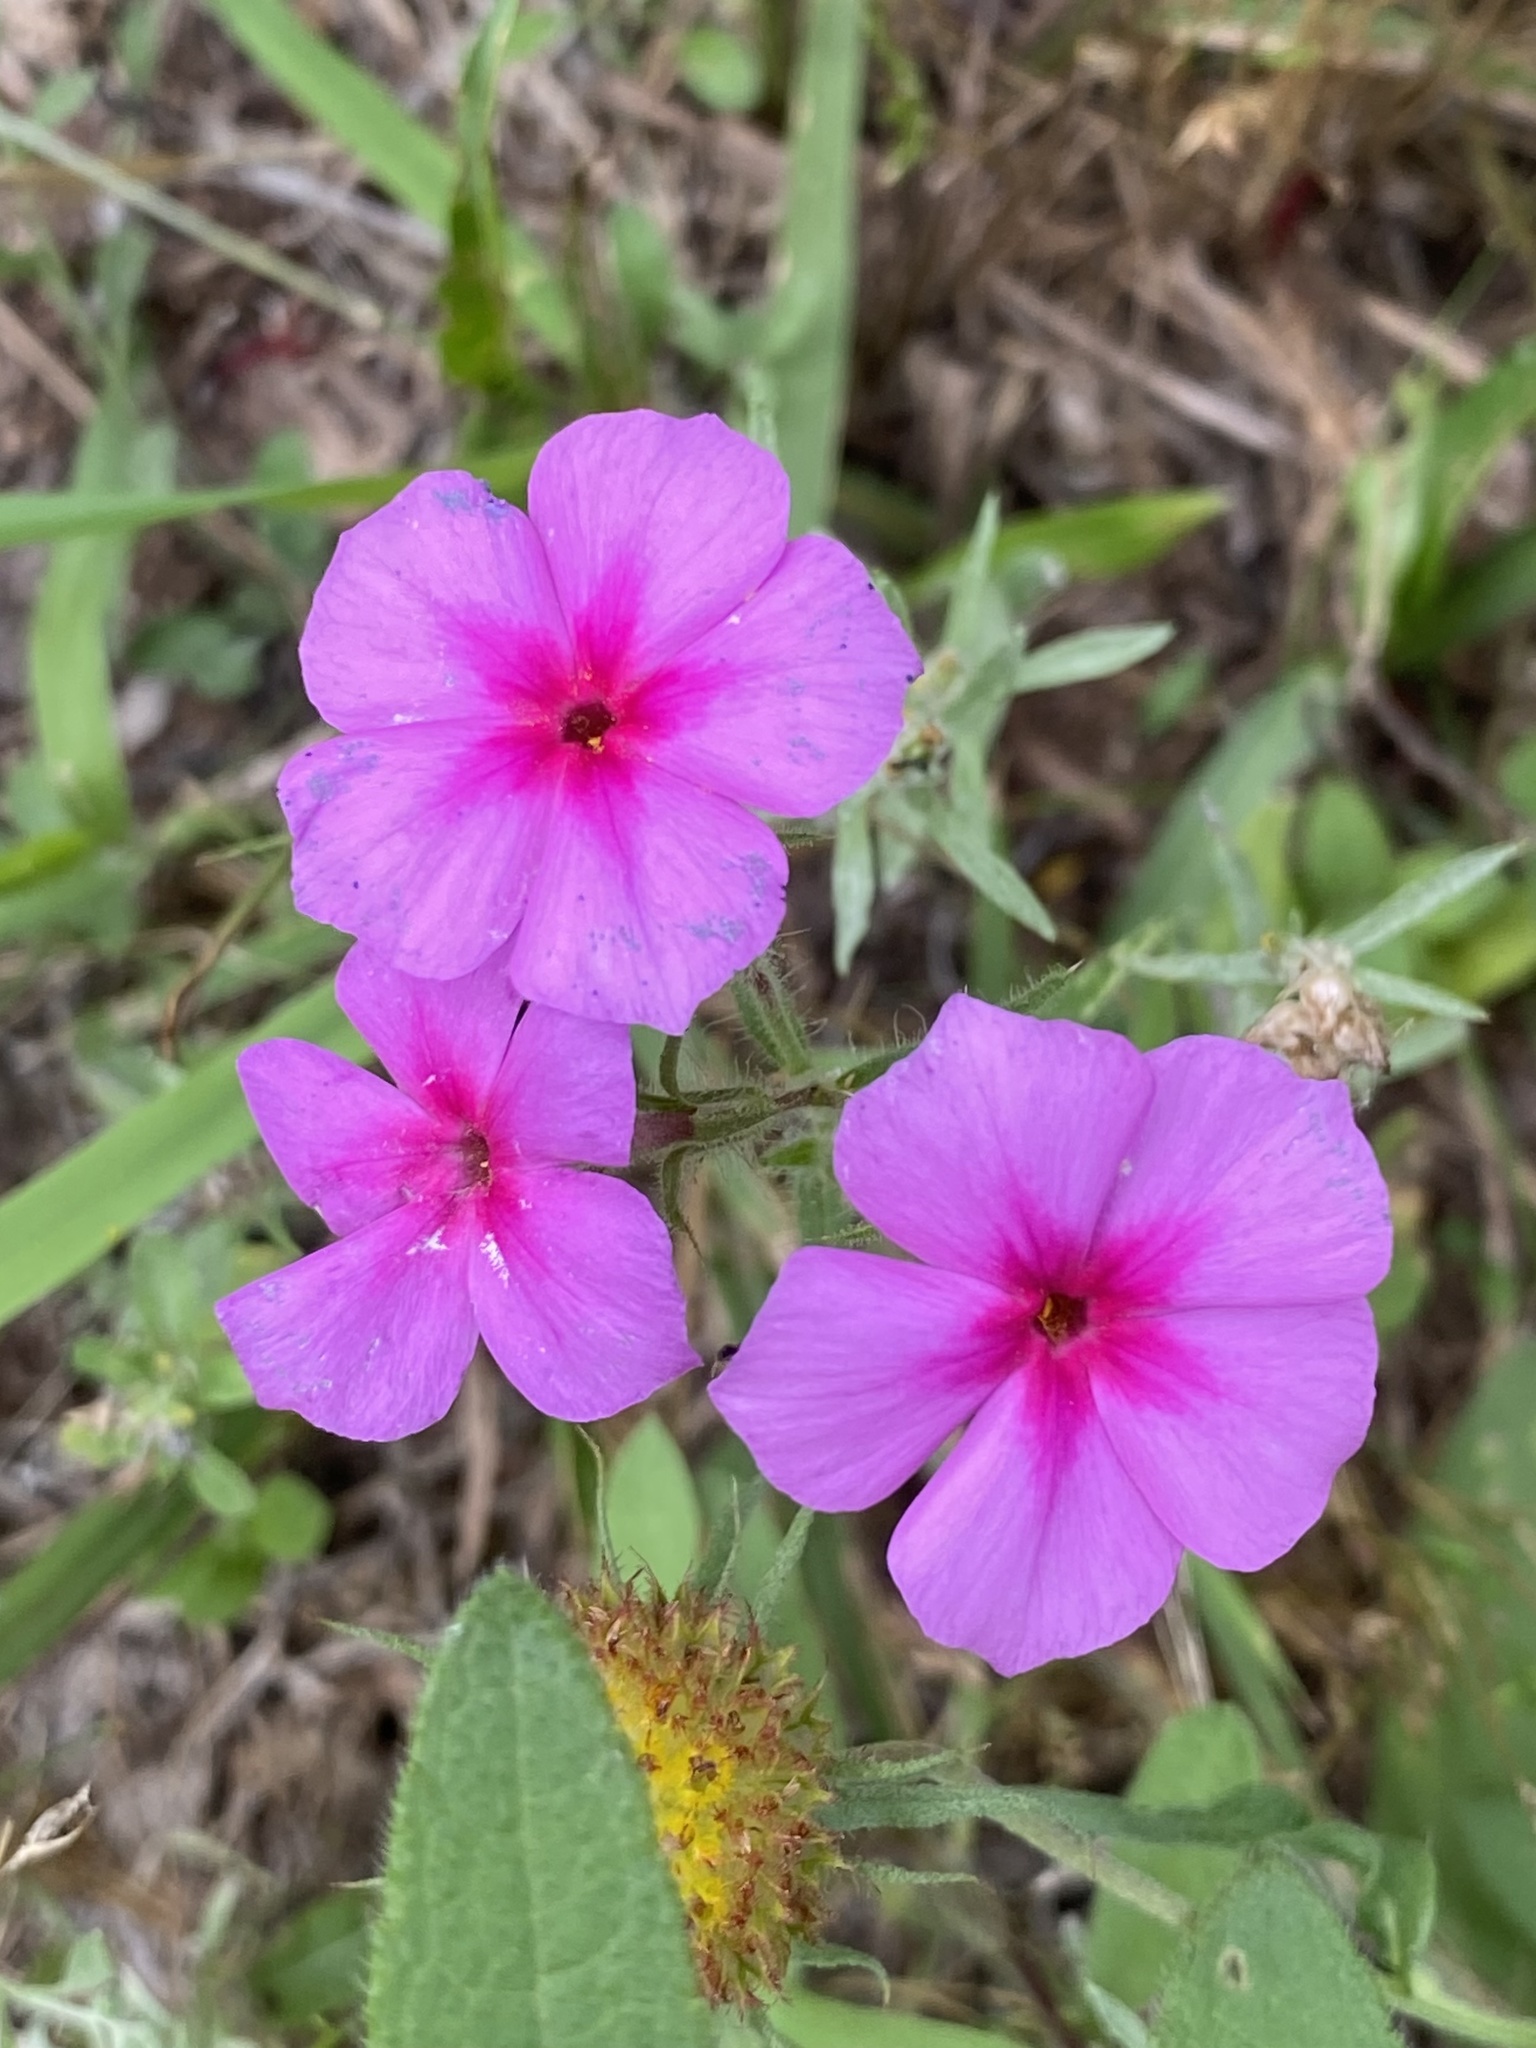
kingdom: Plantae
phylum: Tracheophyta
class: Magnoliopsida
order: Ericales
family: Polemoniaceae
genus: Phlox
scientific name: Phlox drummondii
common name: Drummond's phlox
